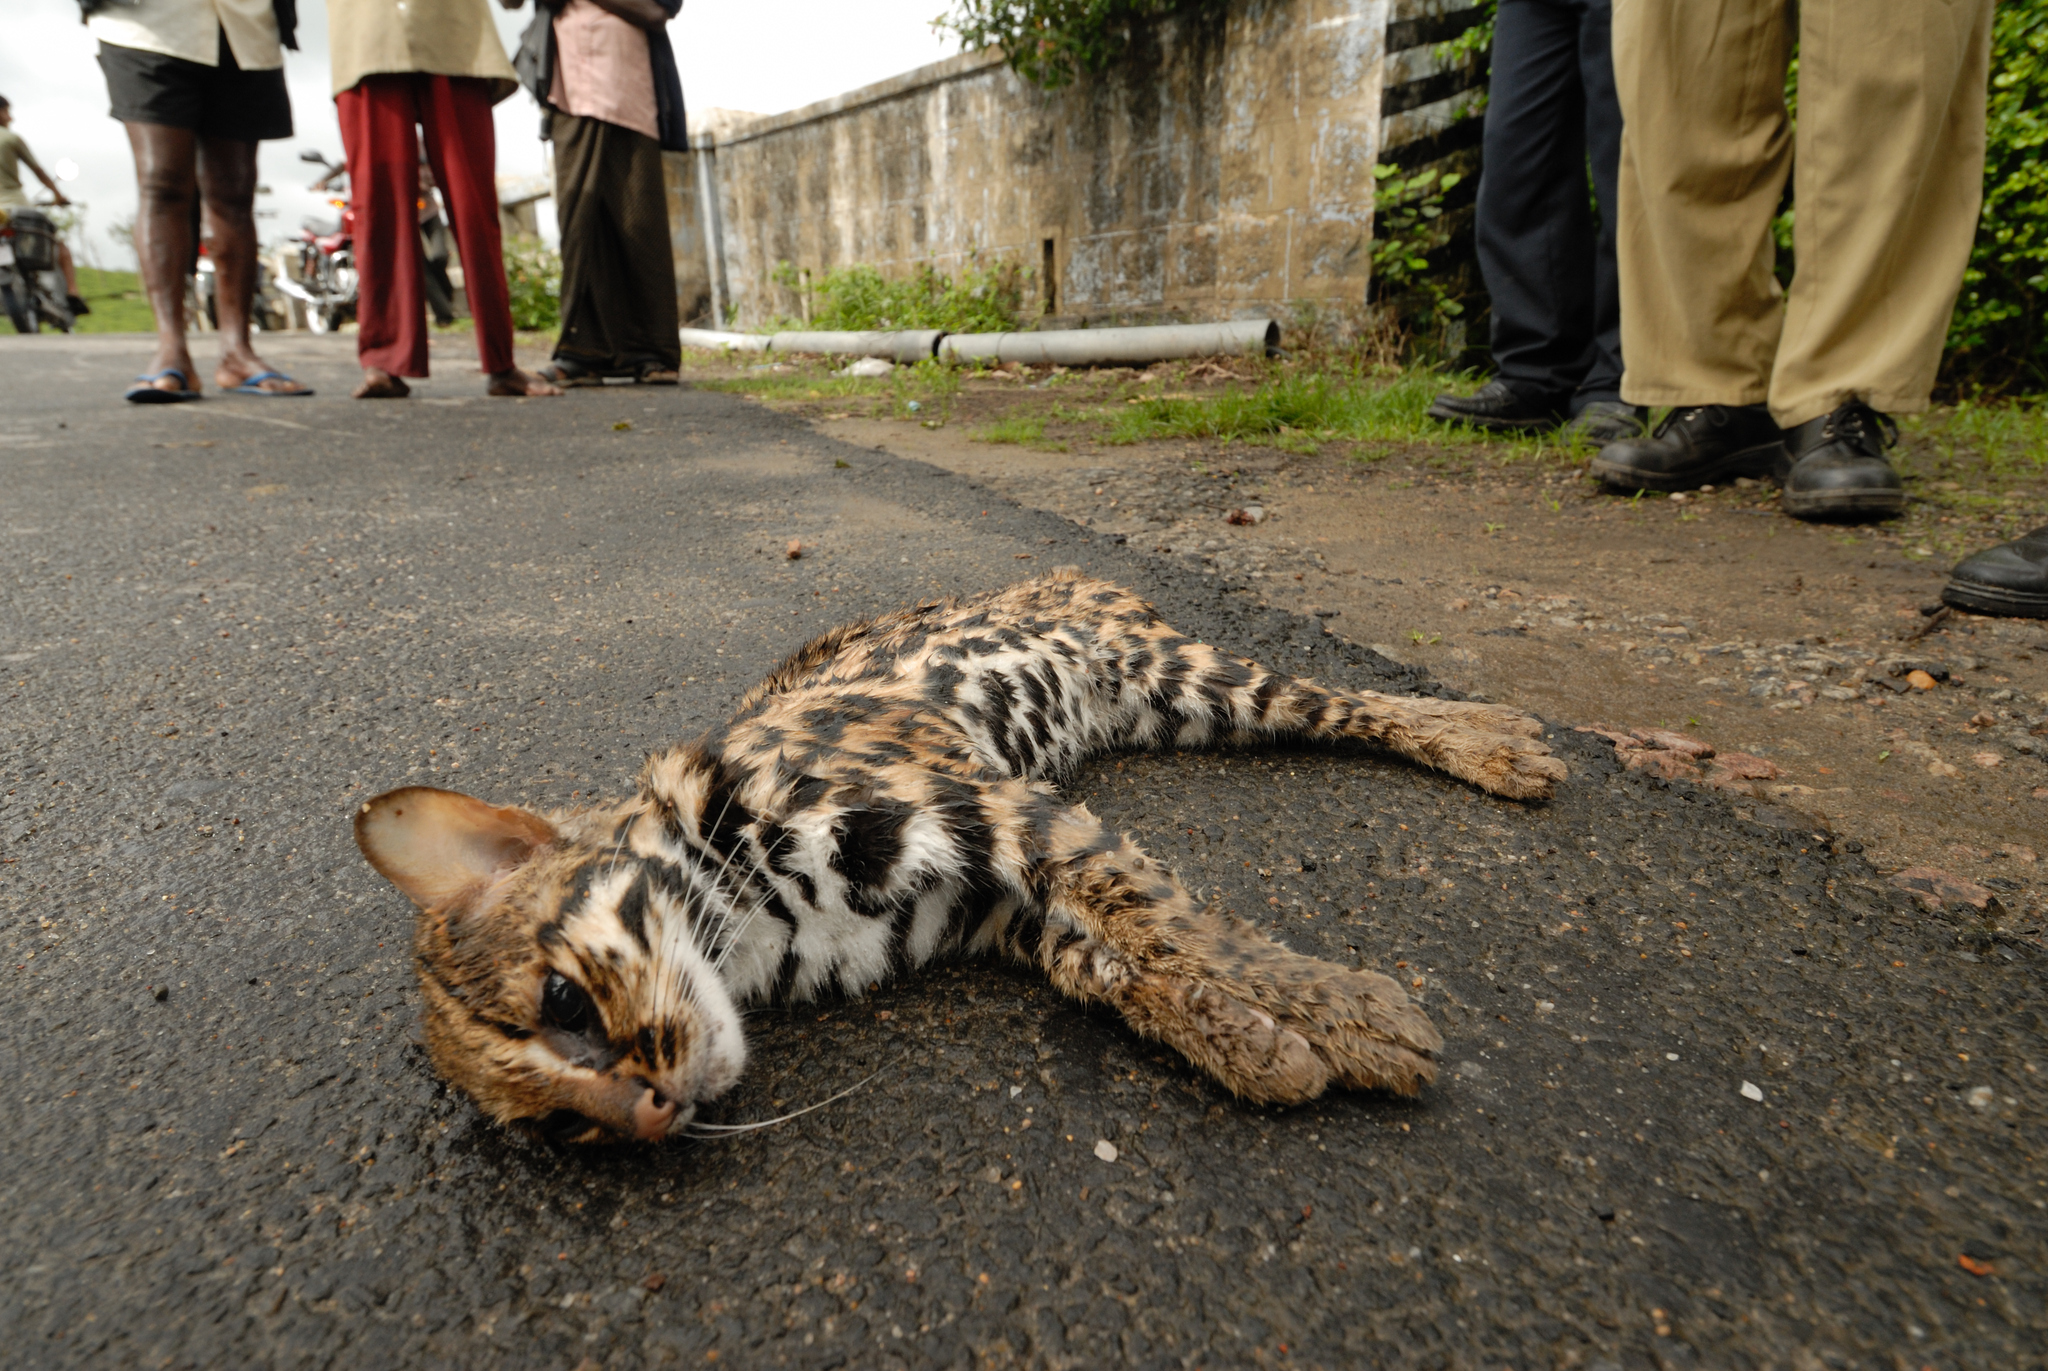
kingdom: Animalia
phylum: Chordata
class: Mammalia
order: Carnivora
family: Felidae
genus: Prionailurus
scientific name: Prionailurus bengalensis
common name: Leopard cat
